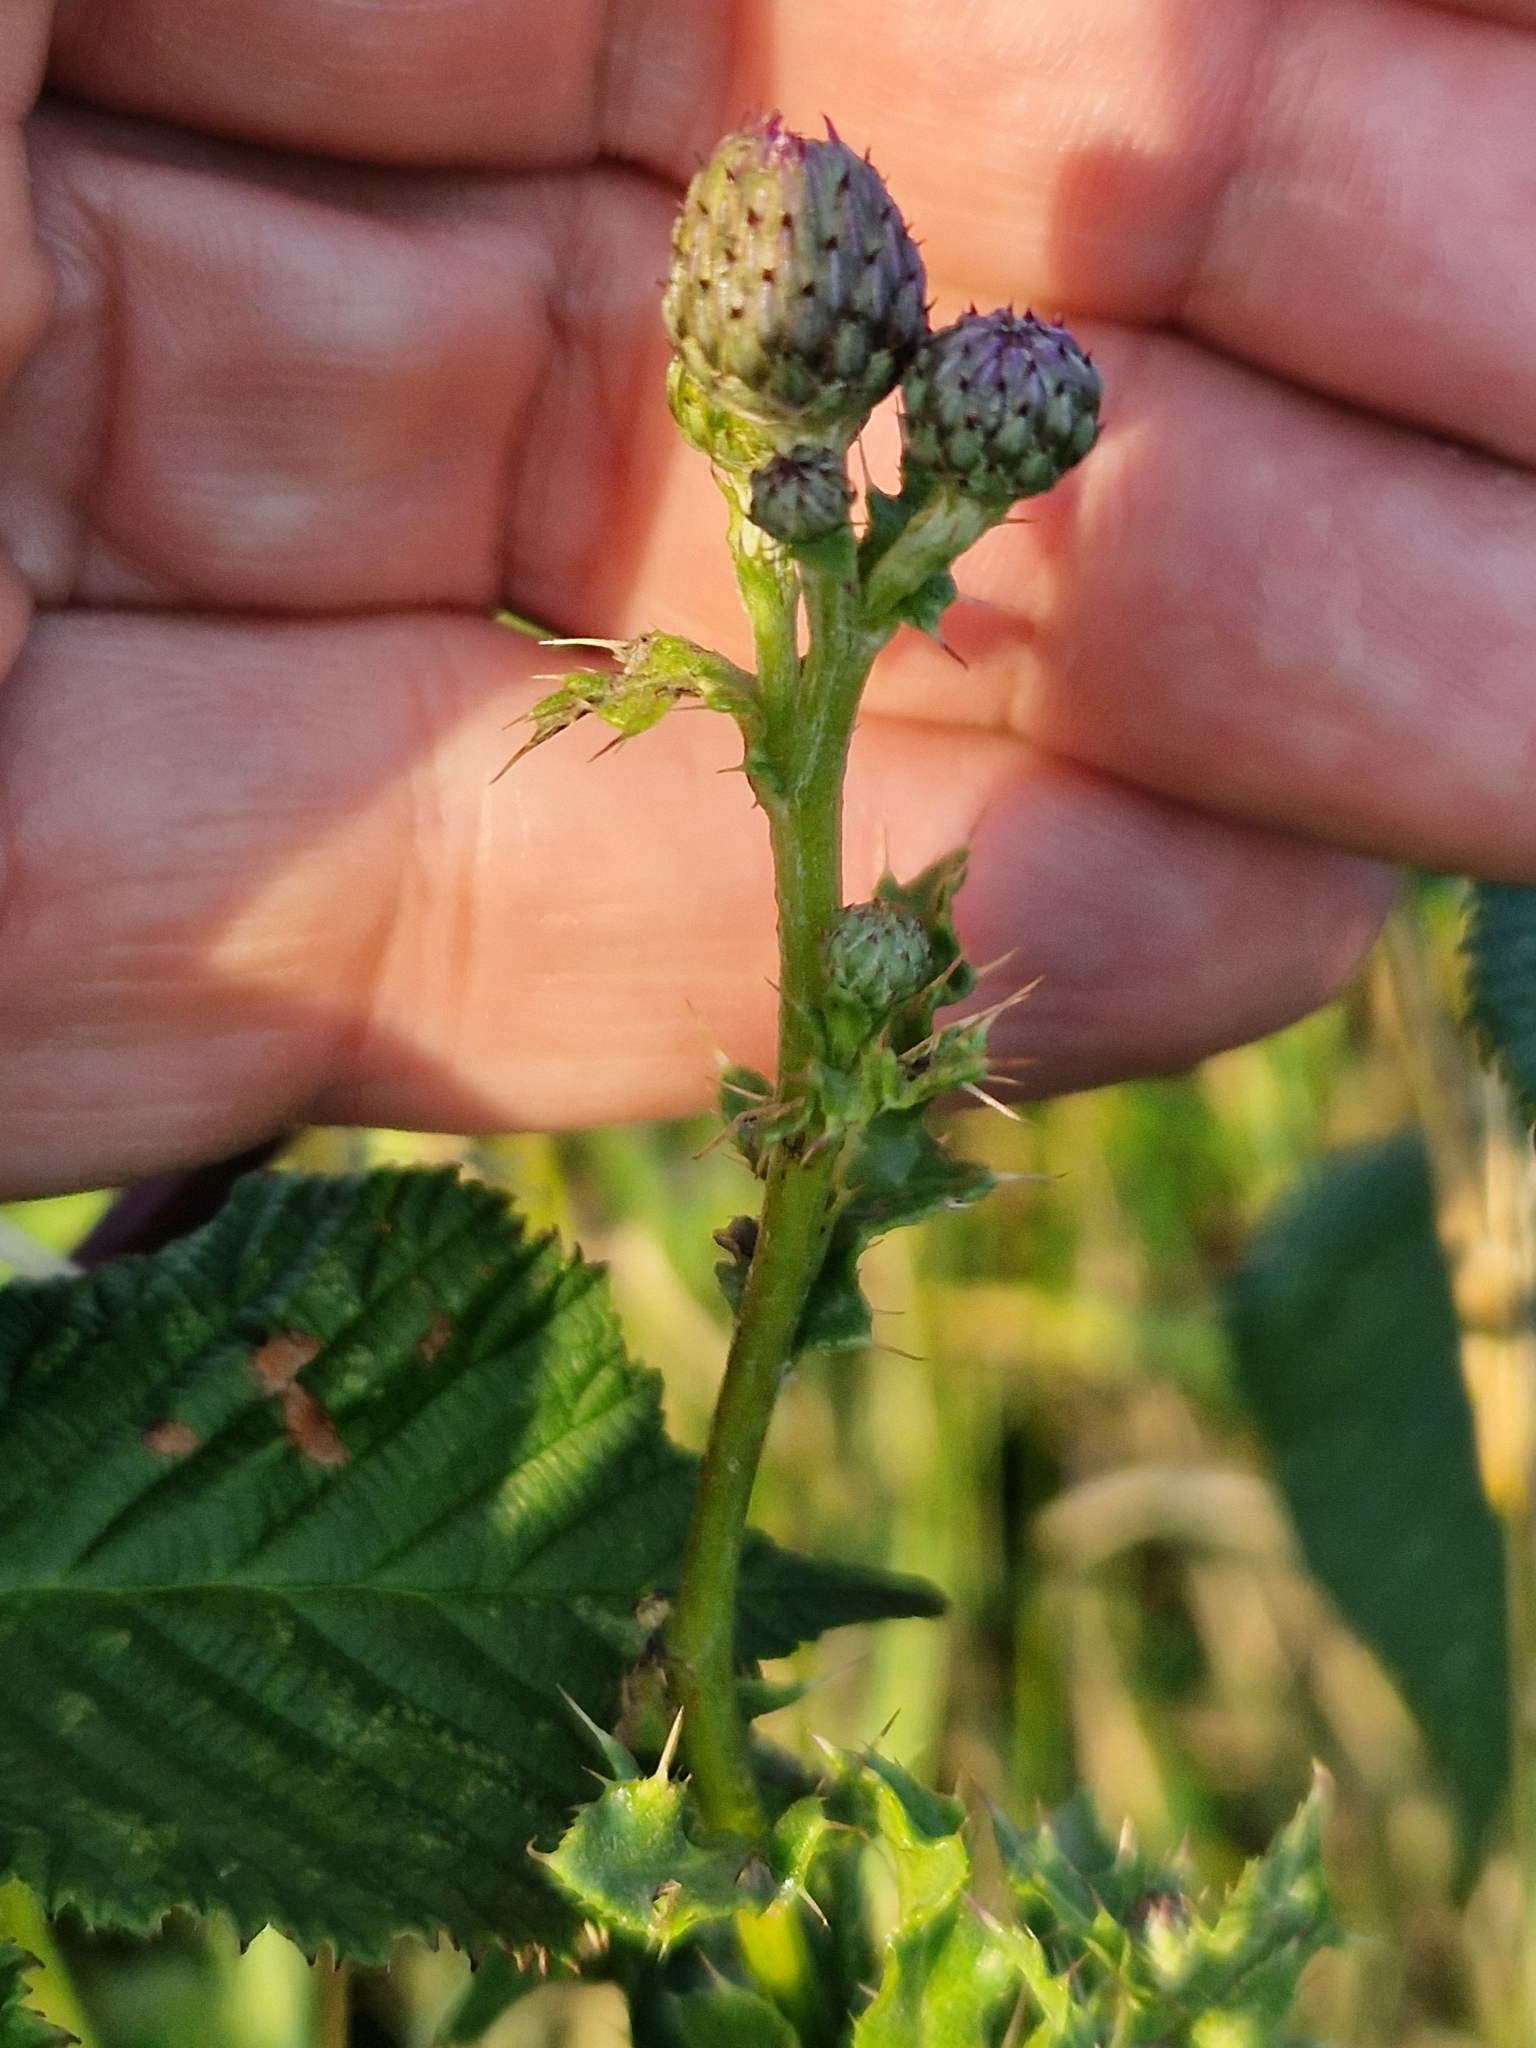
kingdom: Animalia
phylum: Arthropoda
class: Insecta
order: Diptera
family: Tephritidae
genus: Urophora
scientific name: Urophora cardui
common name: Fruit fly
